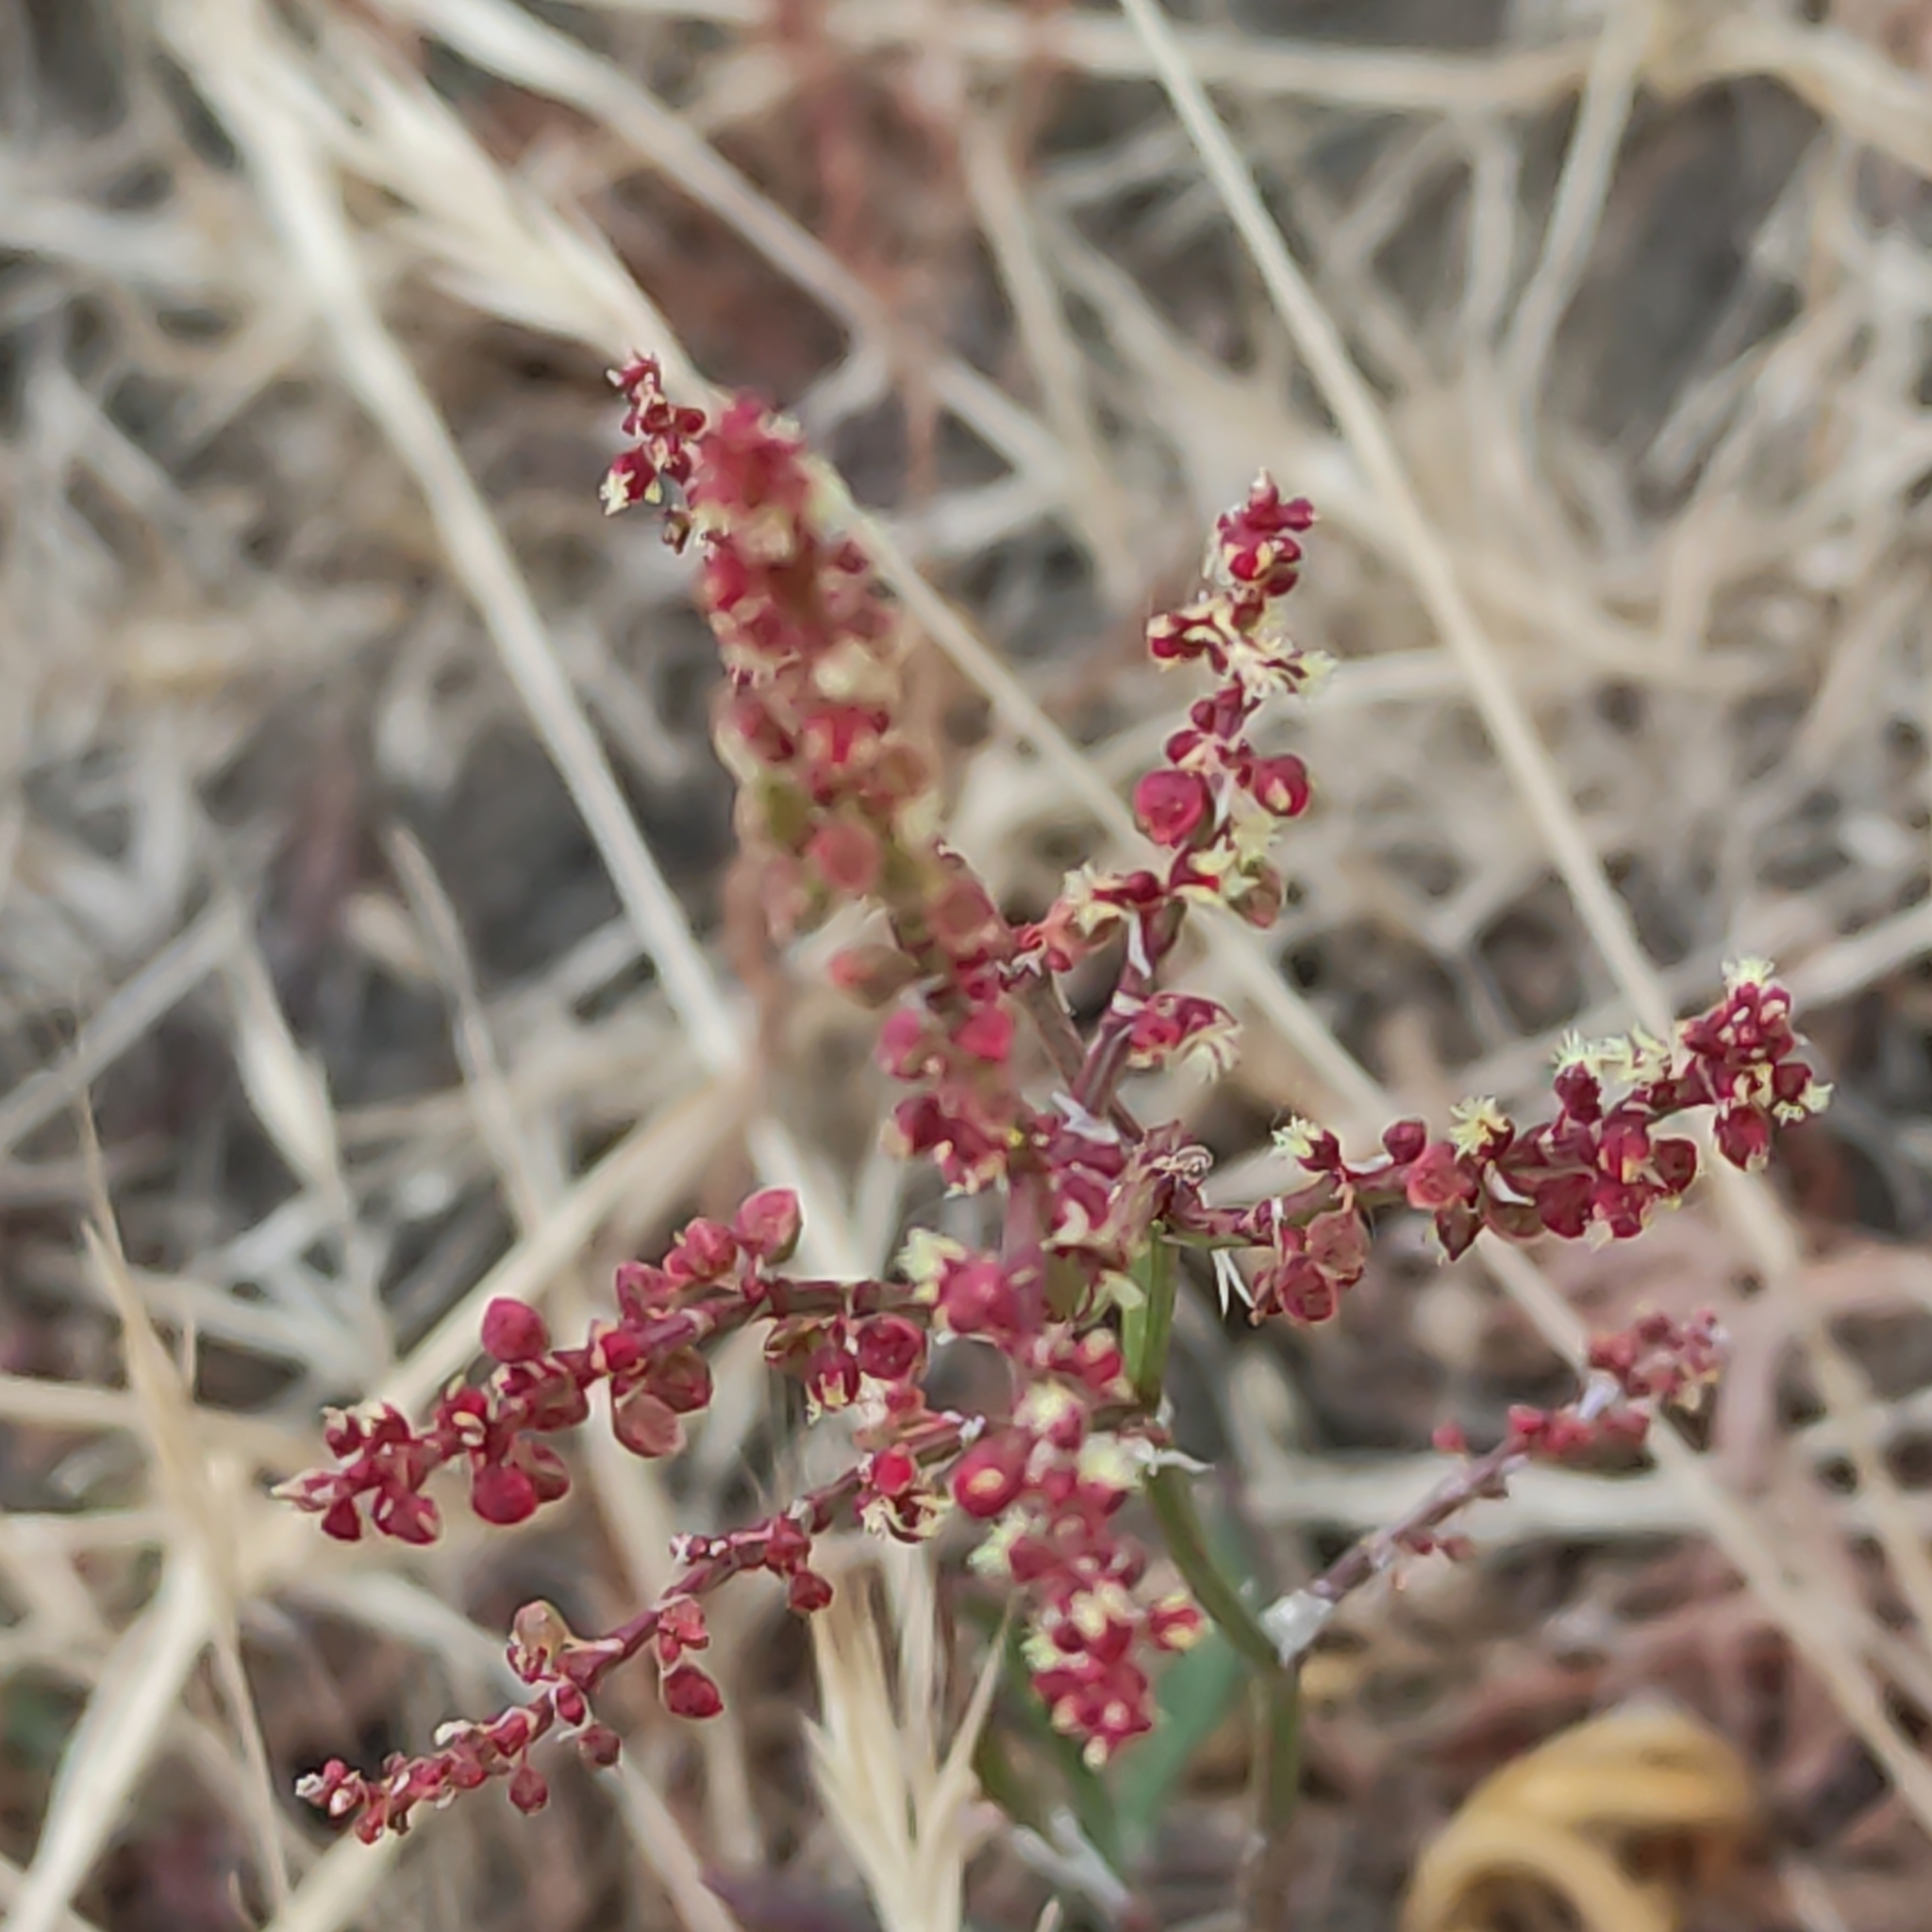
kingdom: Plantae
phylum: Tracheophyta
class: Magnoliopsida
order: Caryophyllales
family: Polygonaceae
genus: Rumex
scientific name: Rumex acetosella
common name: Common sheep sorrel
